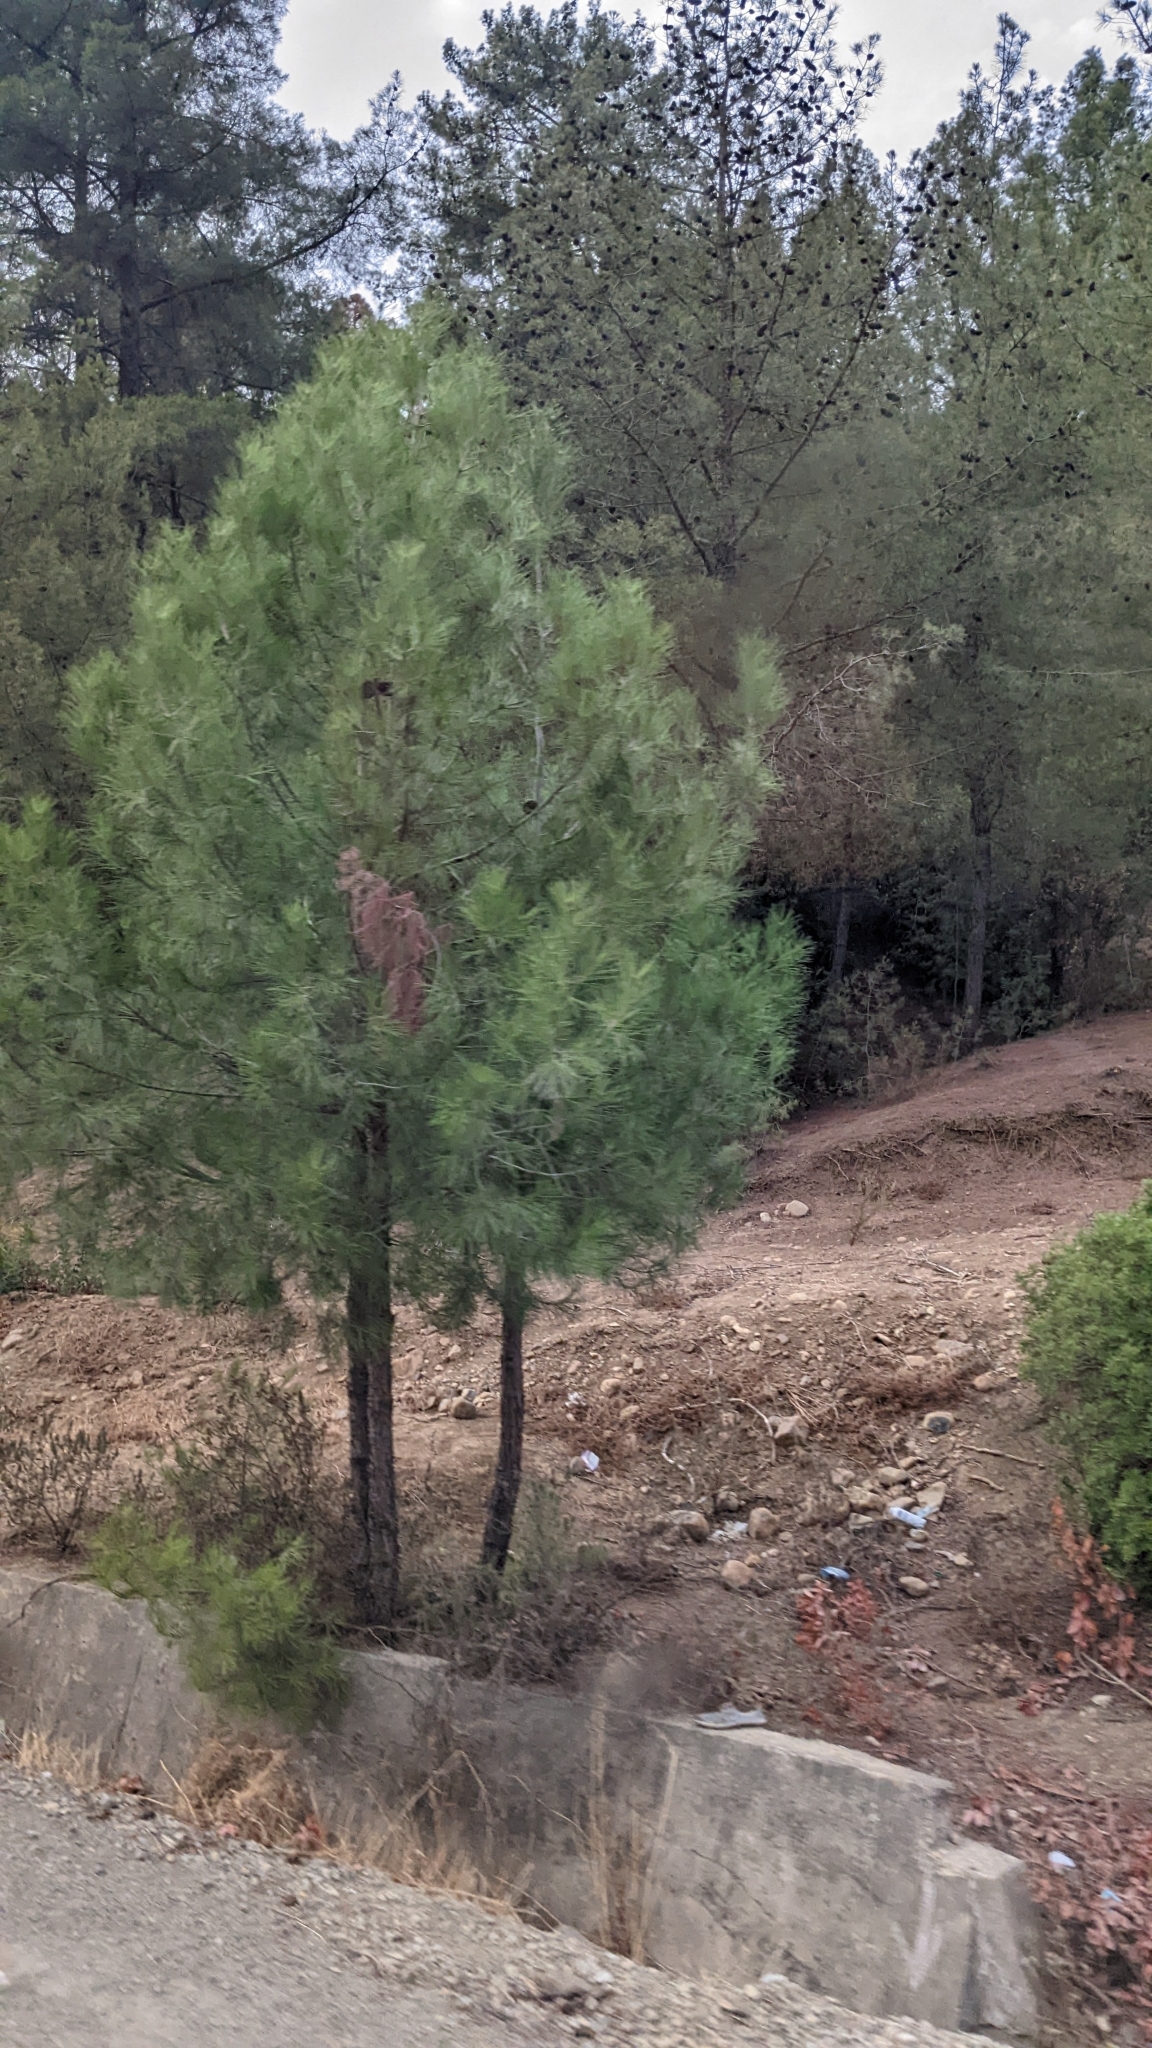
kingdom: Plantae
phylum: Tracheophyta
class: Pinopsida
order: Pinales
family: Pinaceae
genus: Pinus
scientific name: Pinus halepensis
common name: Aleppo pine
